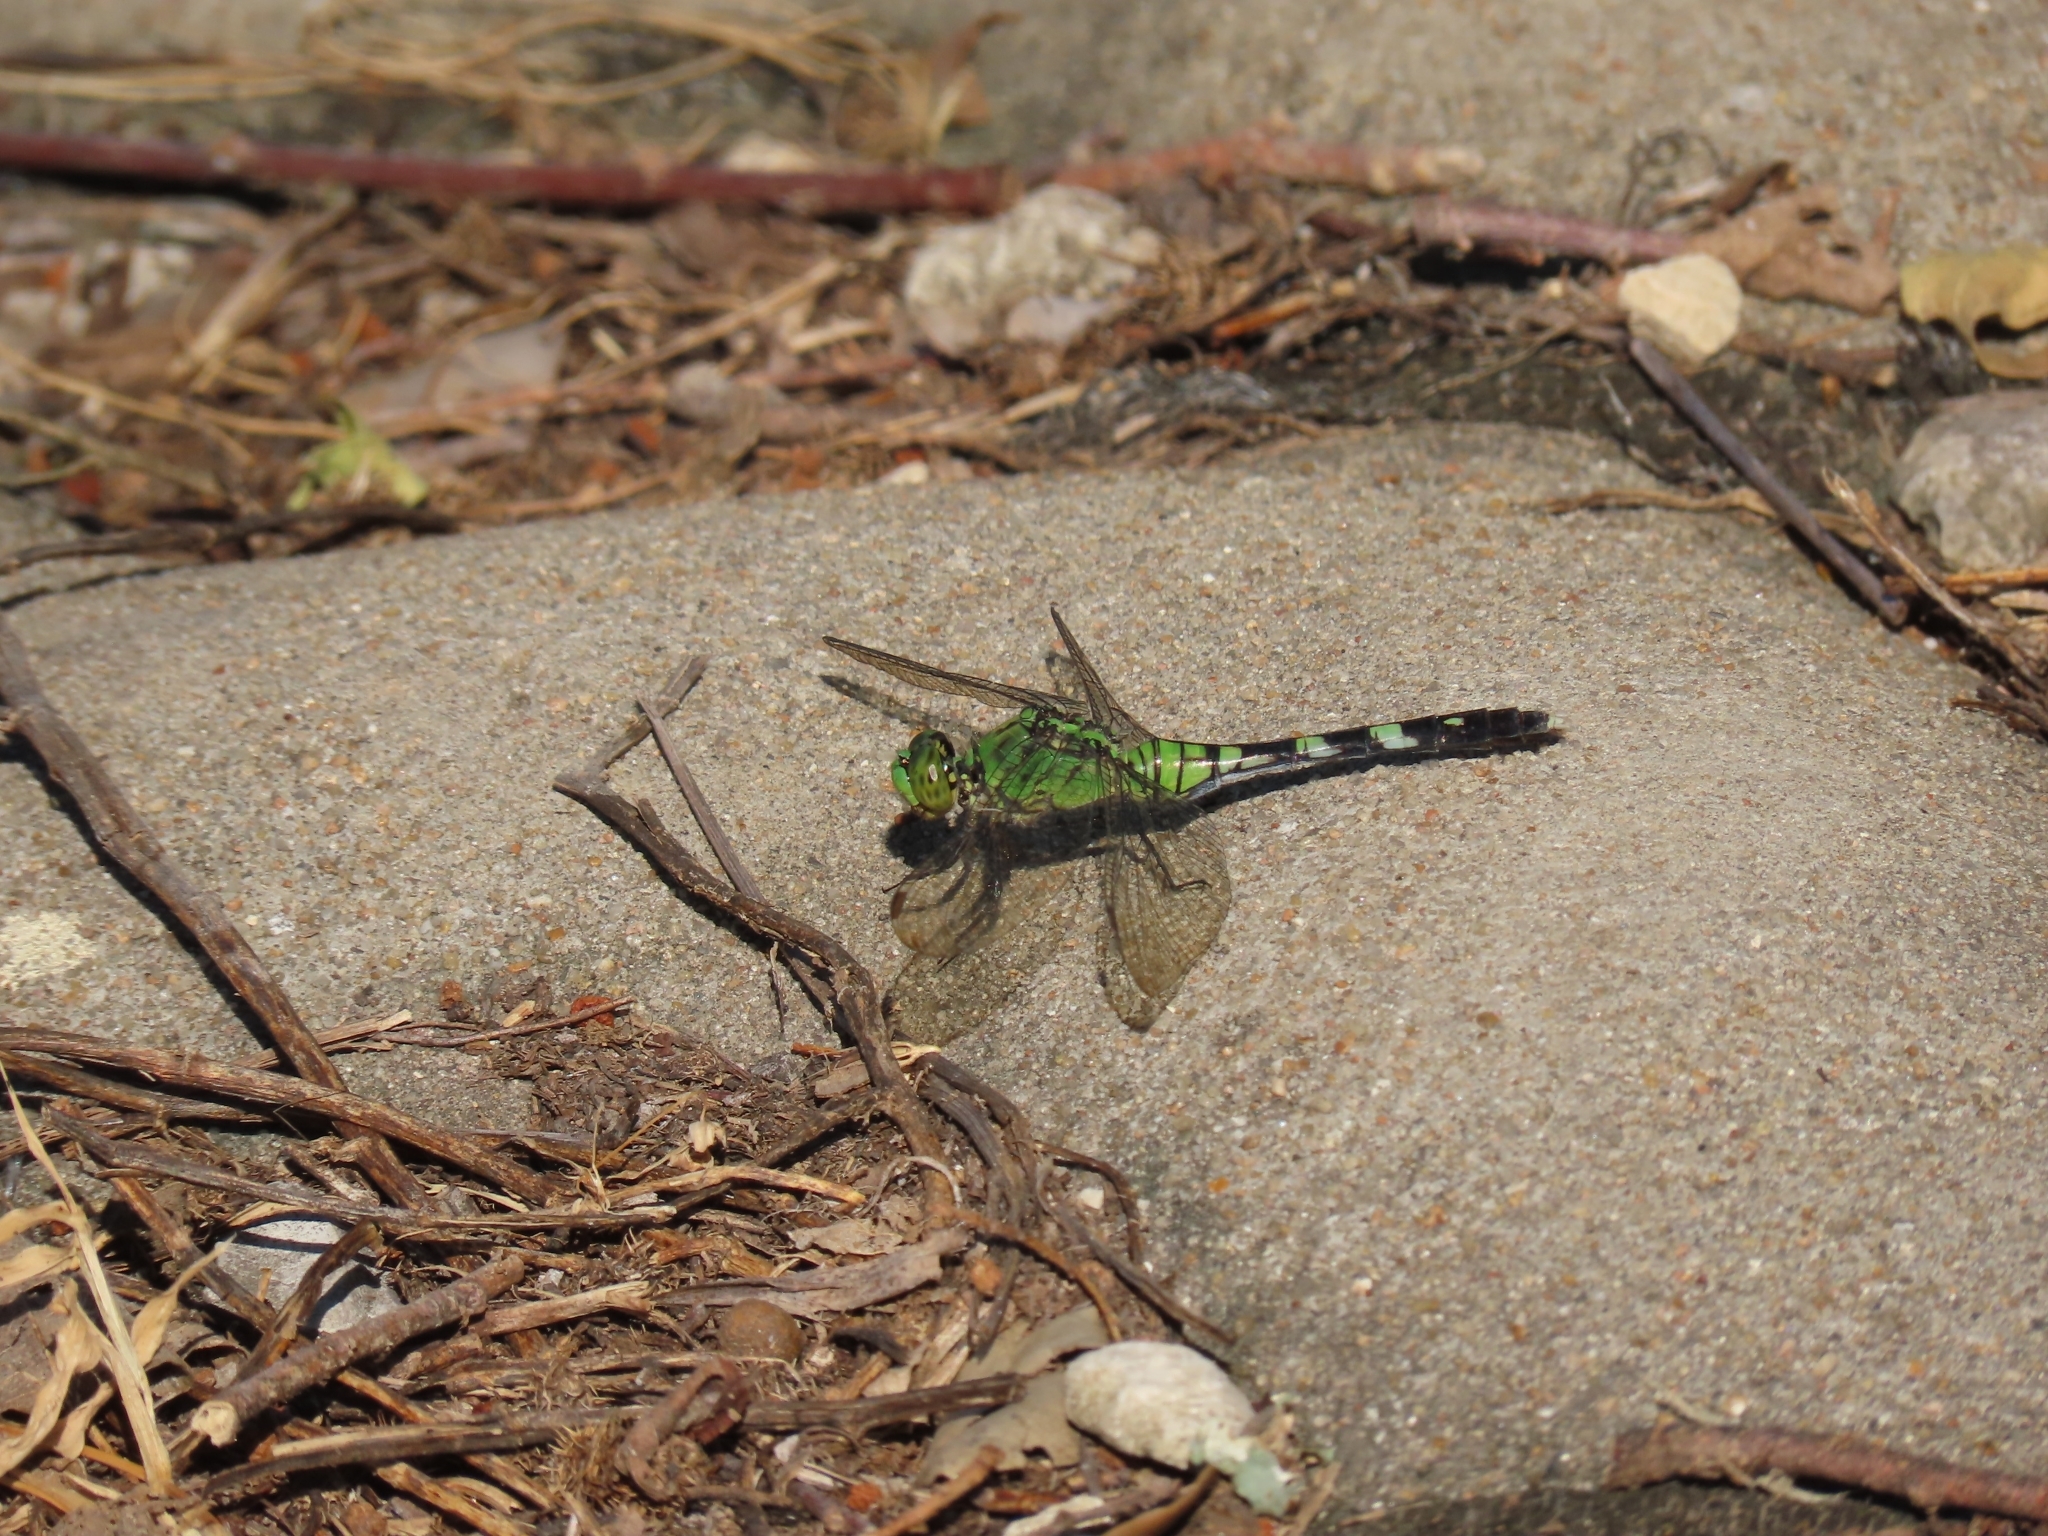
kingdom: Animalia
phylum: Arthropoda
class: Insecta
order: Odonata
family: Libellulidae
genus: Erythemis
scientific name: Erythemis simplicicollis
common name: Eastern pondhawk
